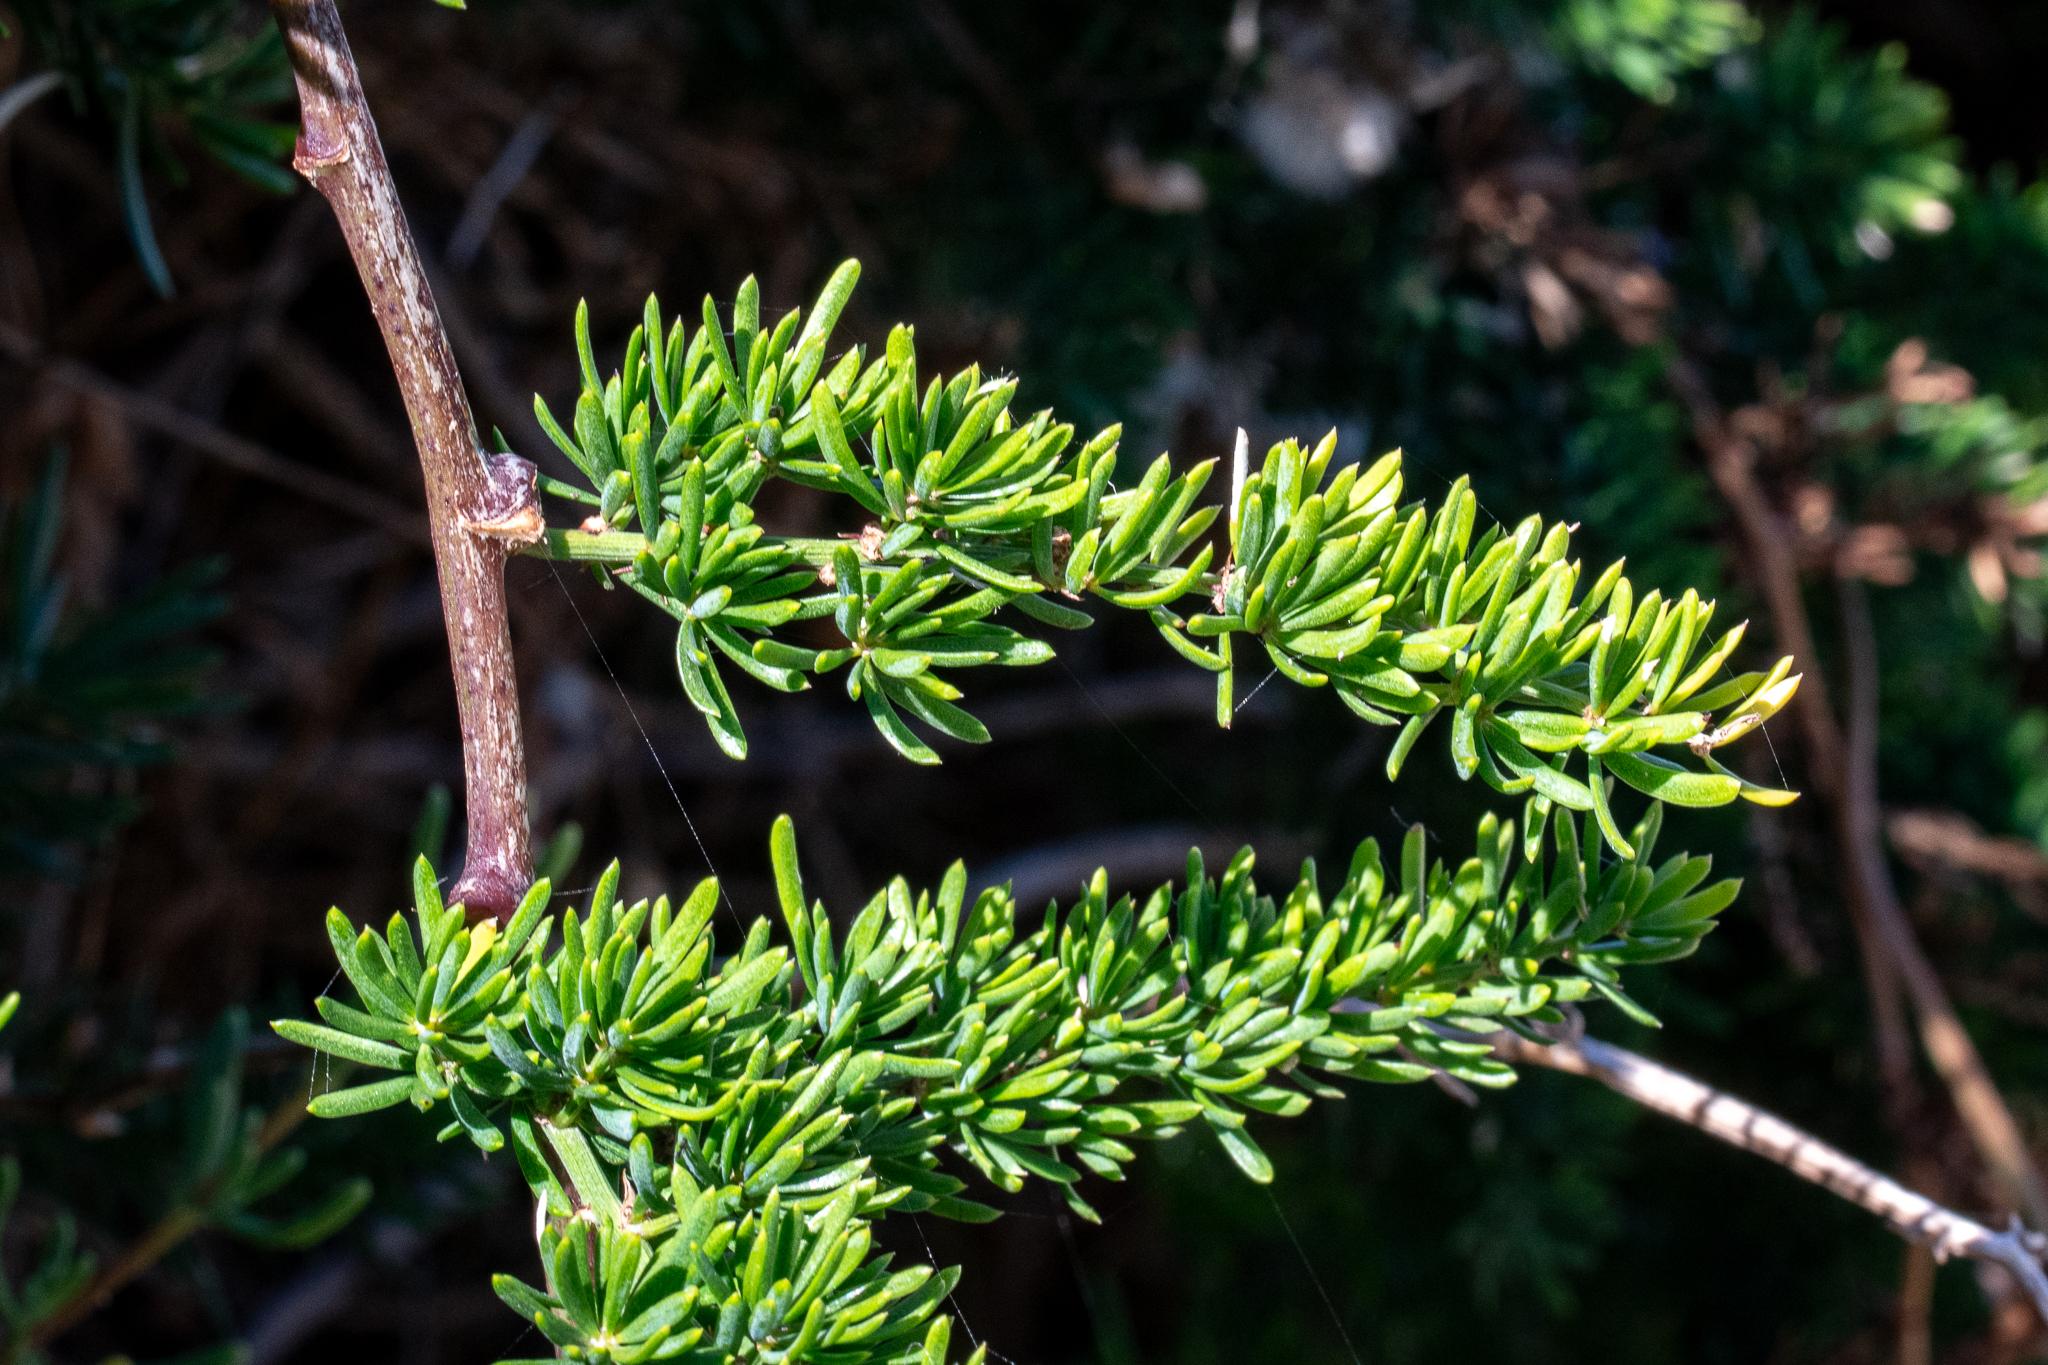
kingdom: Plantae
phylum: Tracheophyta
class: Liliopsida
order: Asparagales
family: Asparagaceae
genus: Asparagus
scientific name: Asparagus aethiopicus
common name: Sprenger's asparagus fern
